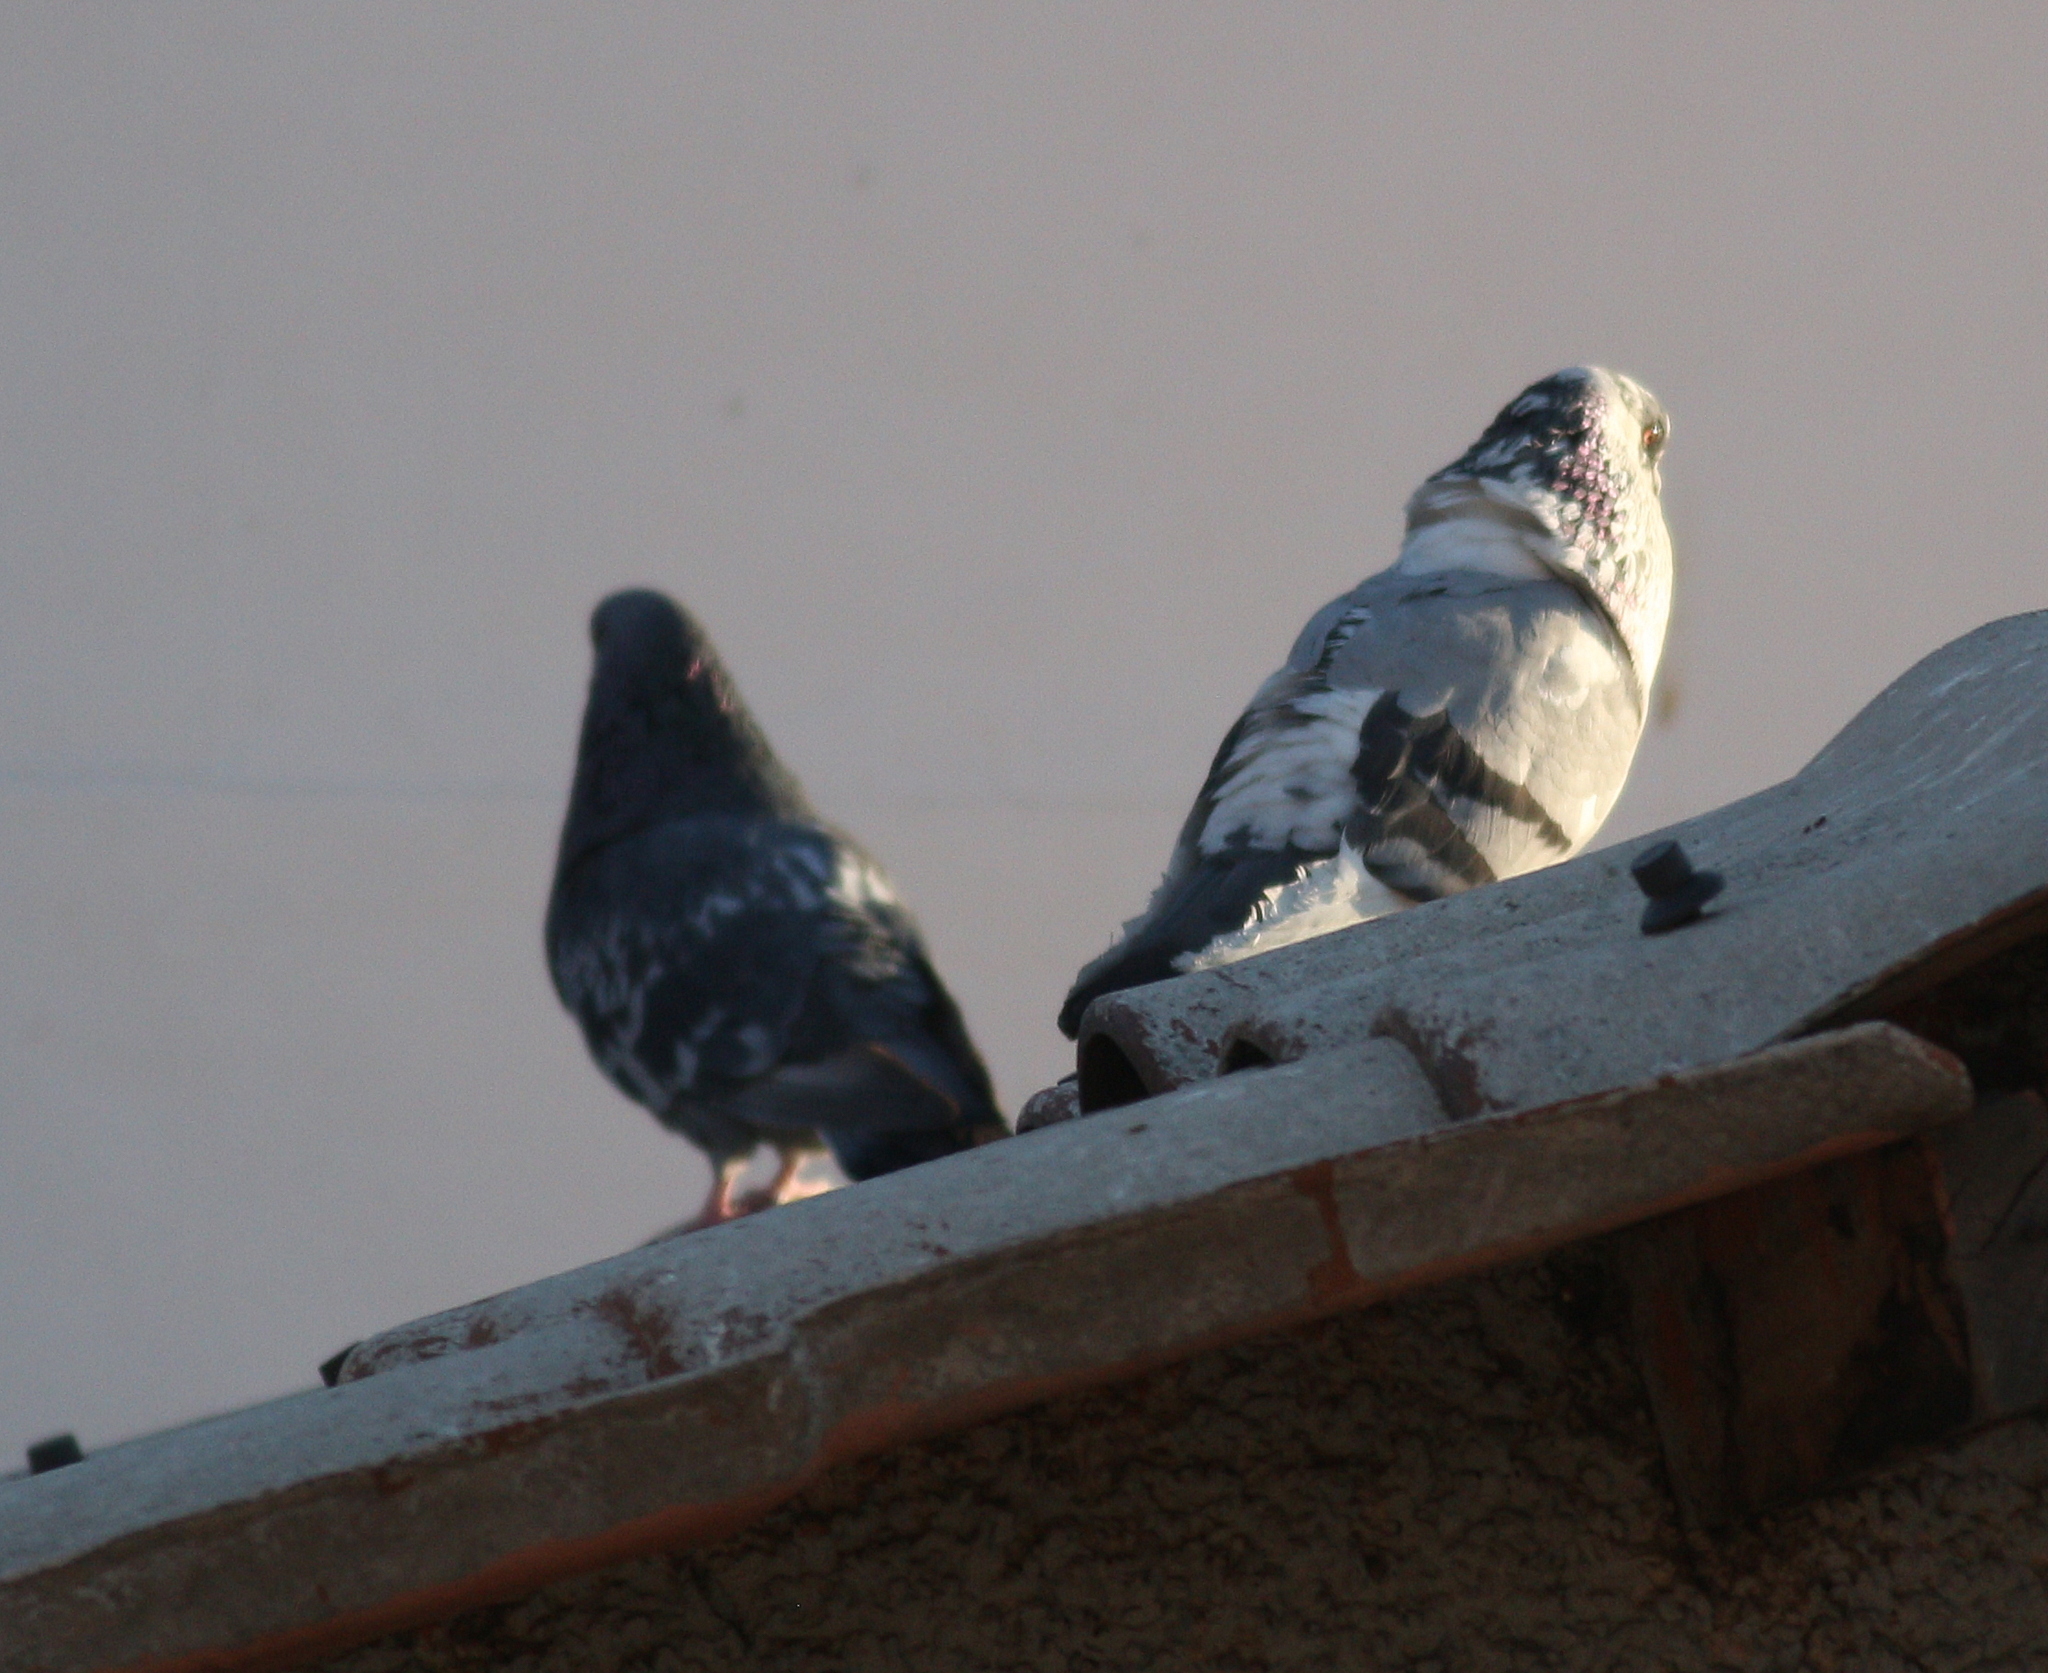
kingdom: Animalia
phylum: Chordata
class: Aves
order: Columbiformes
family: Columbidae
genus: Columba
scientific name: Columba livia
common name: Rock pigeon
